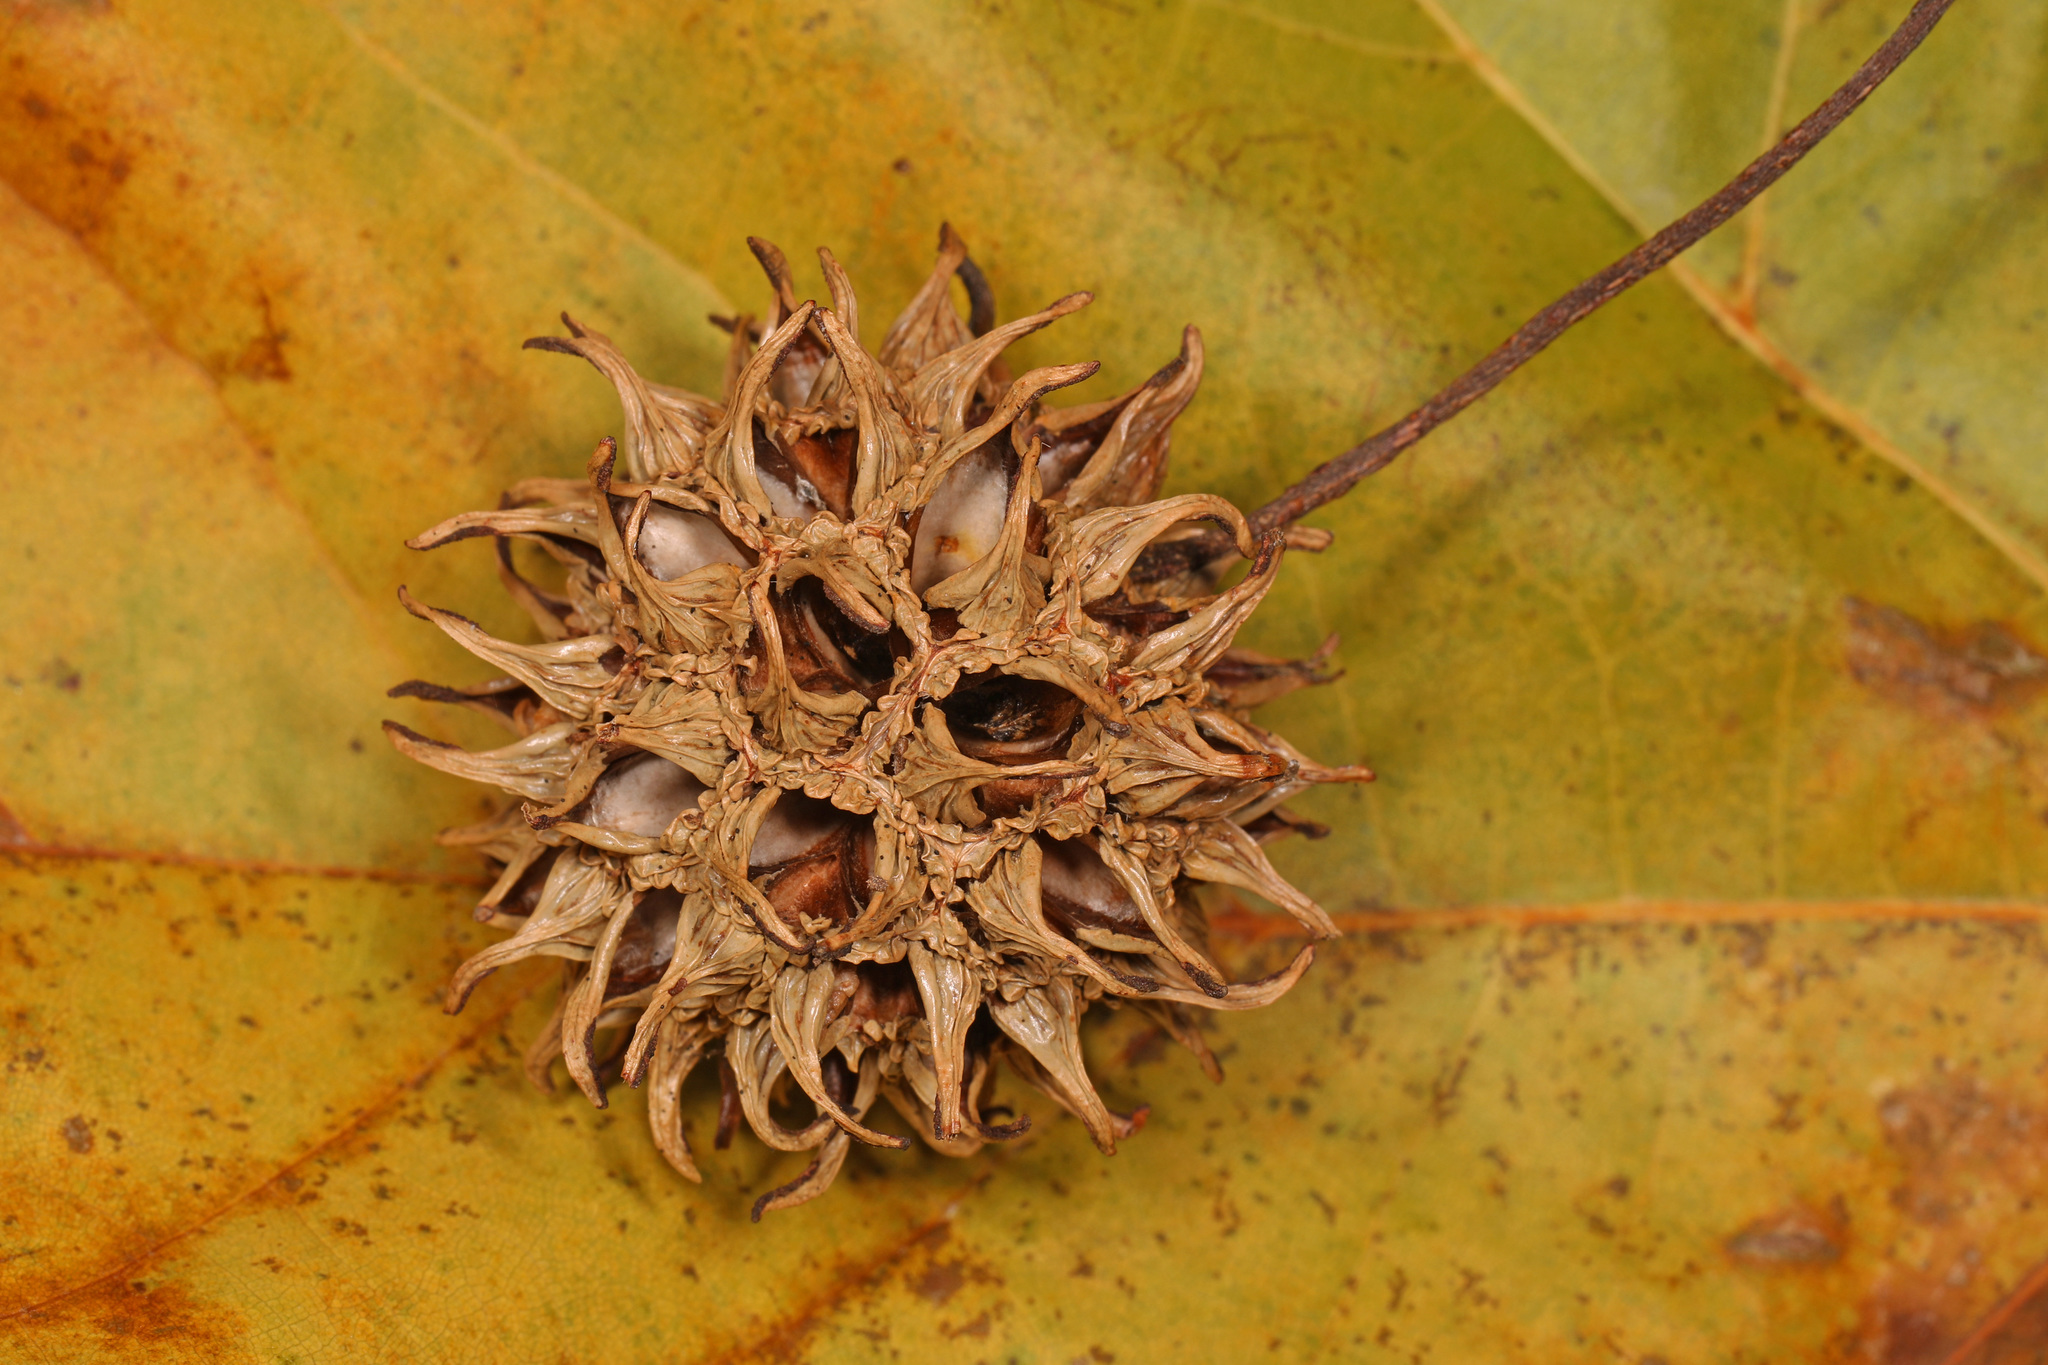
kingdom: Plantae
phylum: Tracheophyta
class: Magnoliopsida
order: Saxifragales
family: Altingiaceae
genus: Liquidambar
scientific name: Liquidambar styraciflua
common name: Sweet gum
